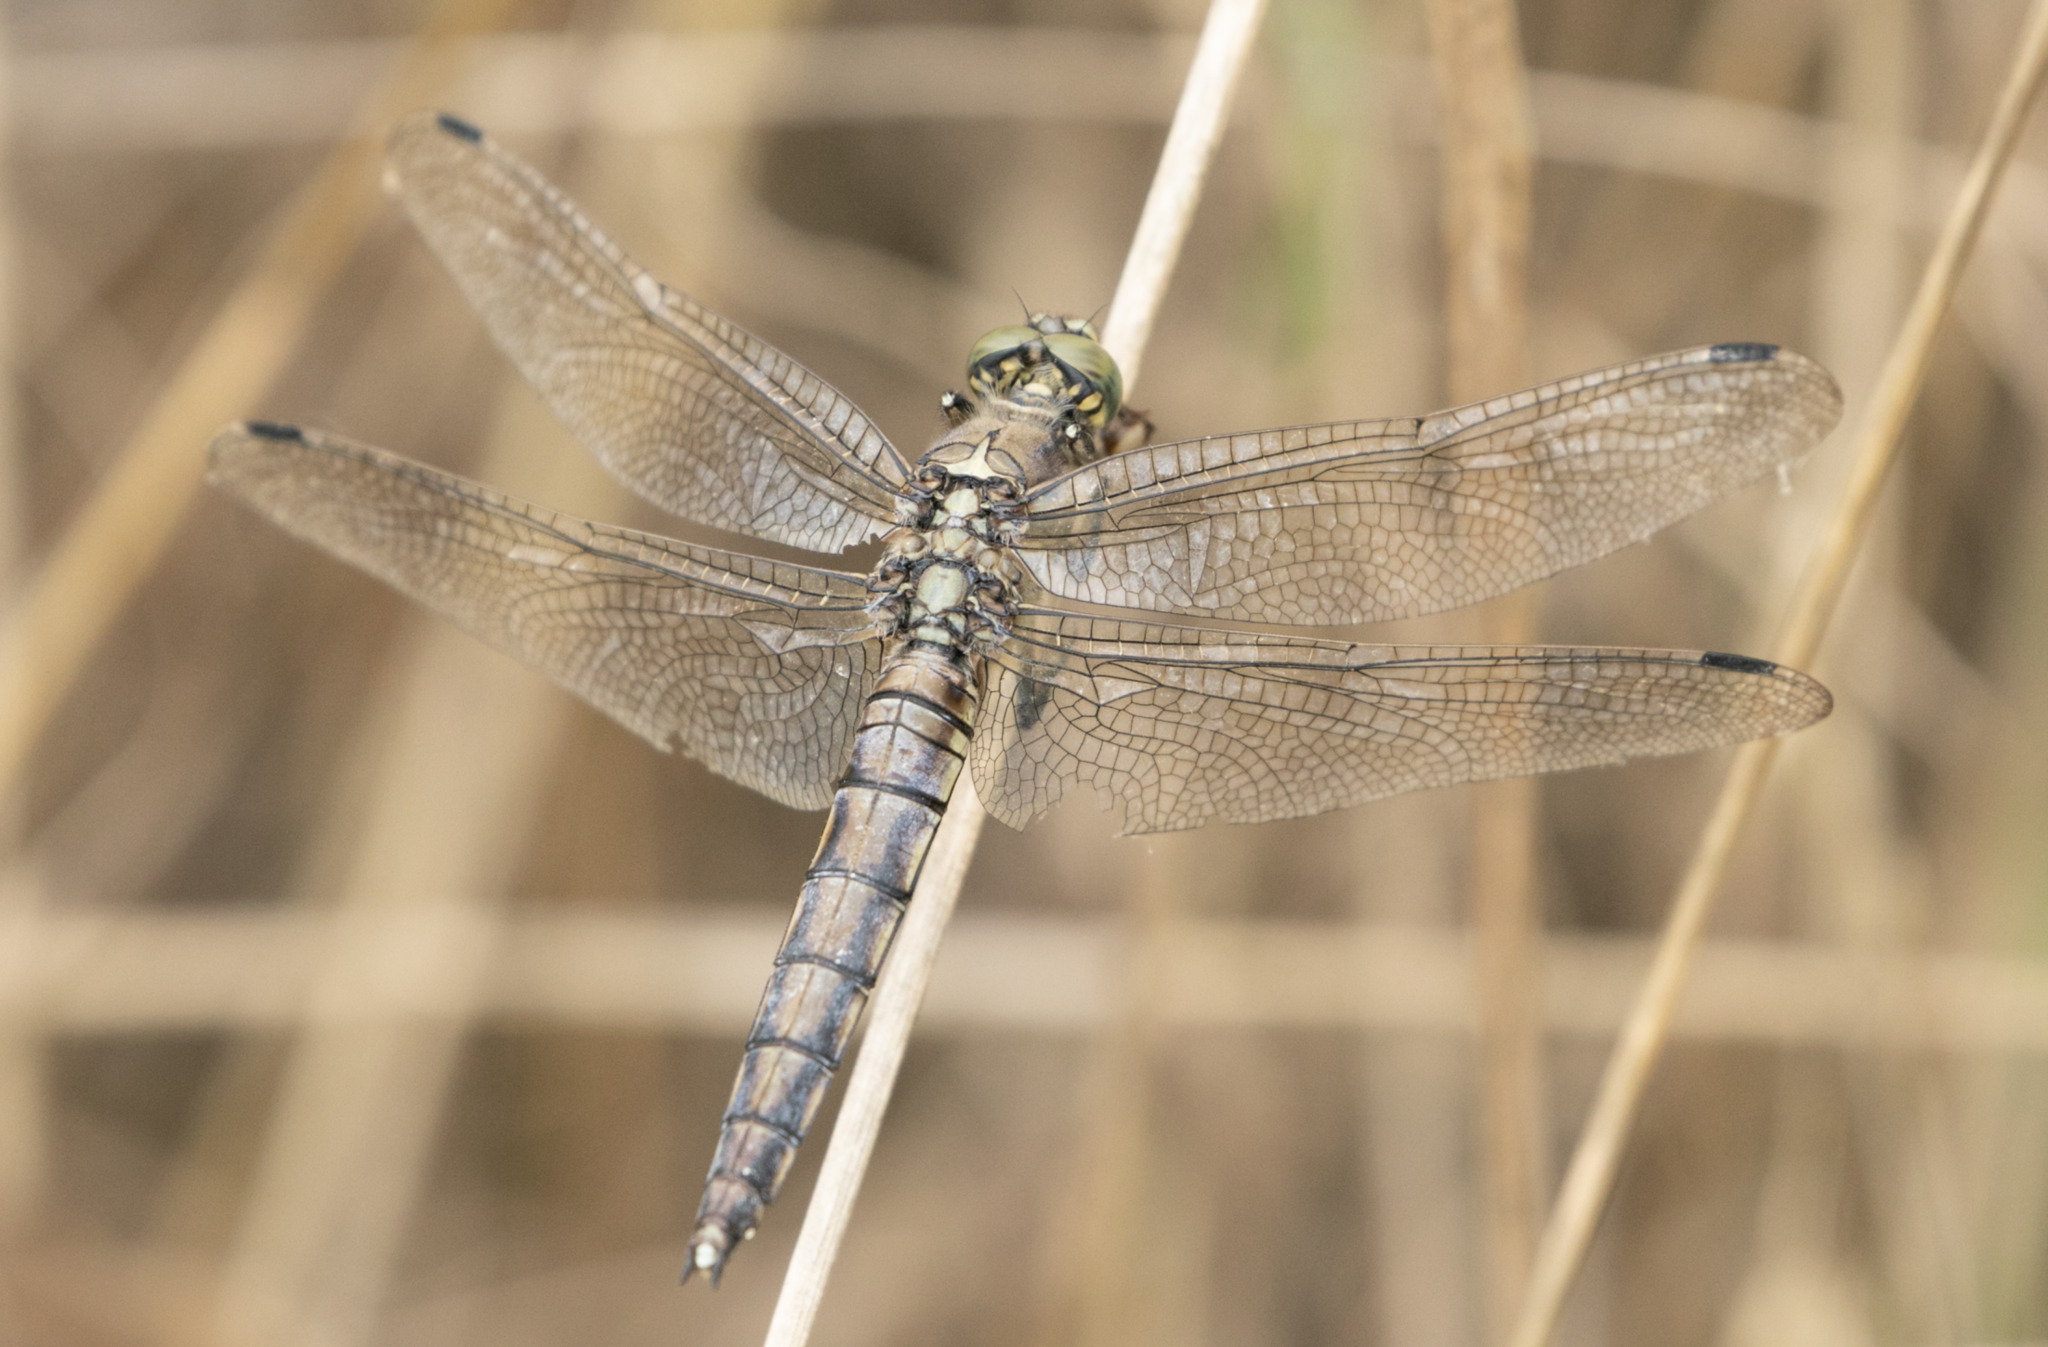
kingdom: Animalia
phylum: Arthropoda
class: Insecta
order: Odonata
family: Libellulidae
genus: Orthetrum
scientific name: Orthetrum cancellatum
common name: Black-tailed skimmer
